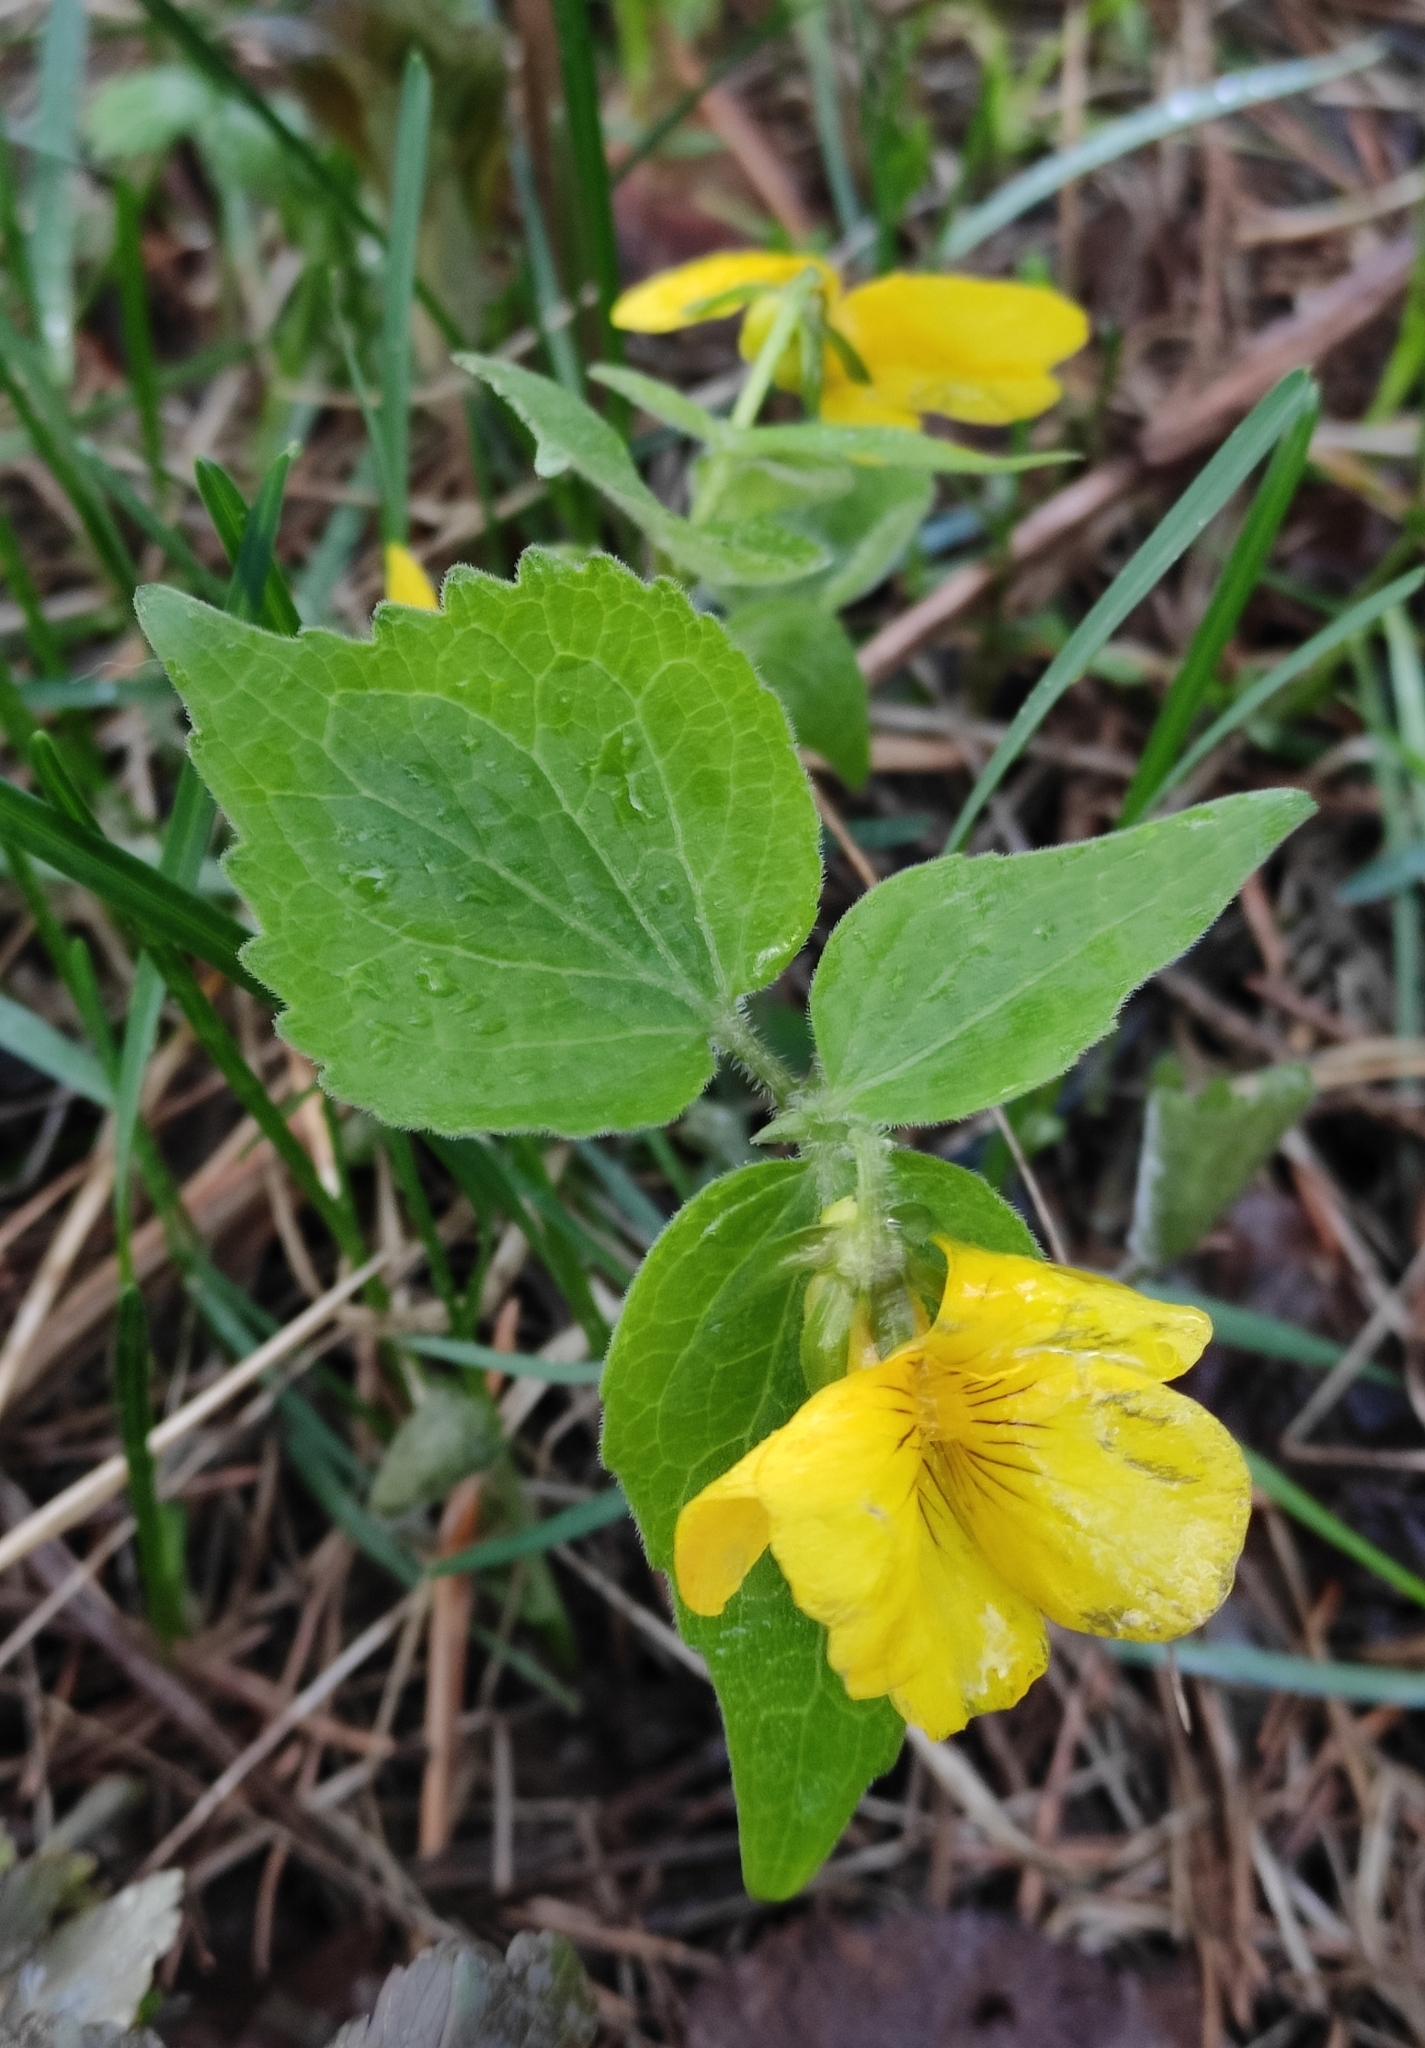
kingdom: Plantae
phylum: Tracheophyta
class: Magnoliopsida
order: Malpighiales
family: Violaceae
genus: Viola
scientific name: Viola uniflora
